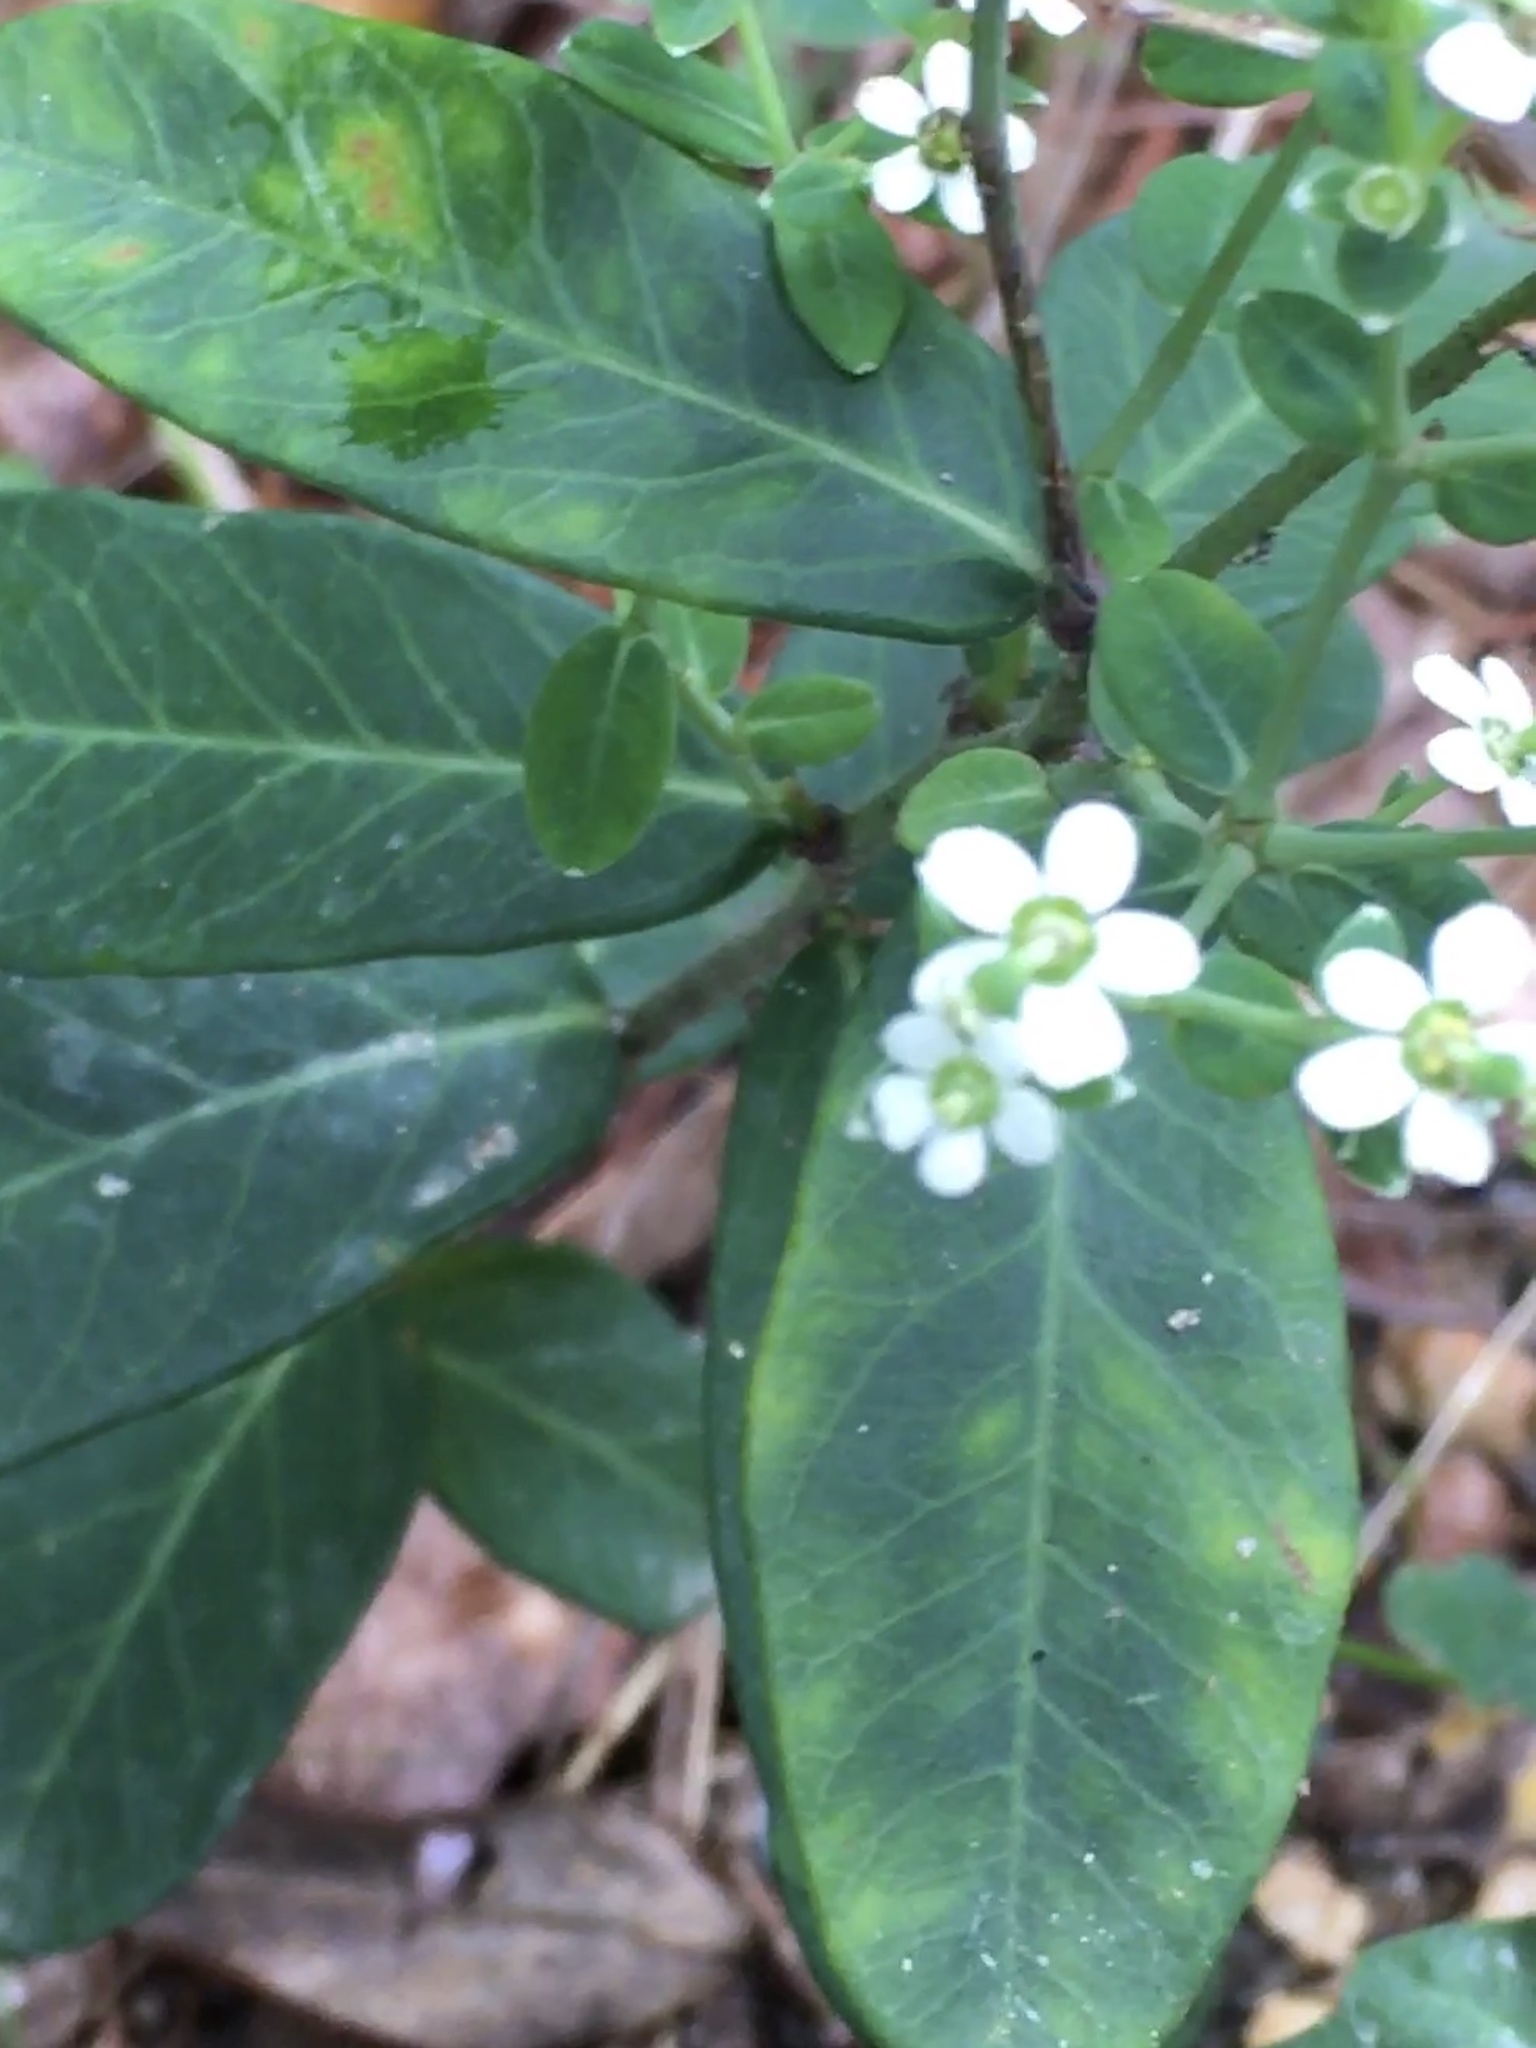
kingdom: Plantae
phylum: Tracheophyta
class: Magnoliopsida
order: Malpighiales
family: Euphorbiaceae
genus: Euphorbia
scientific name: Euphorbia corollata
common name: Flowering spurge
